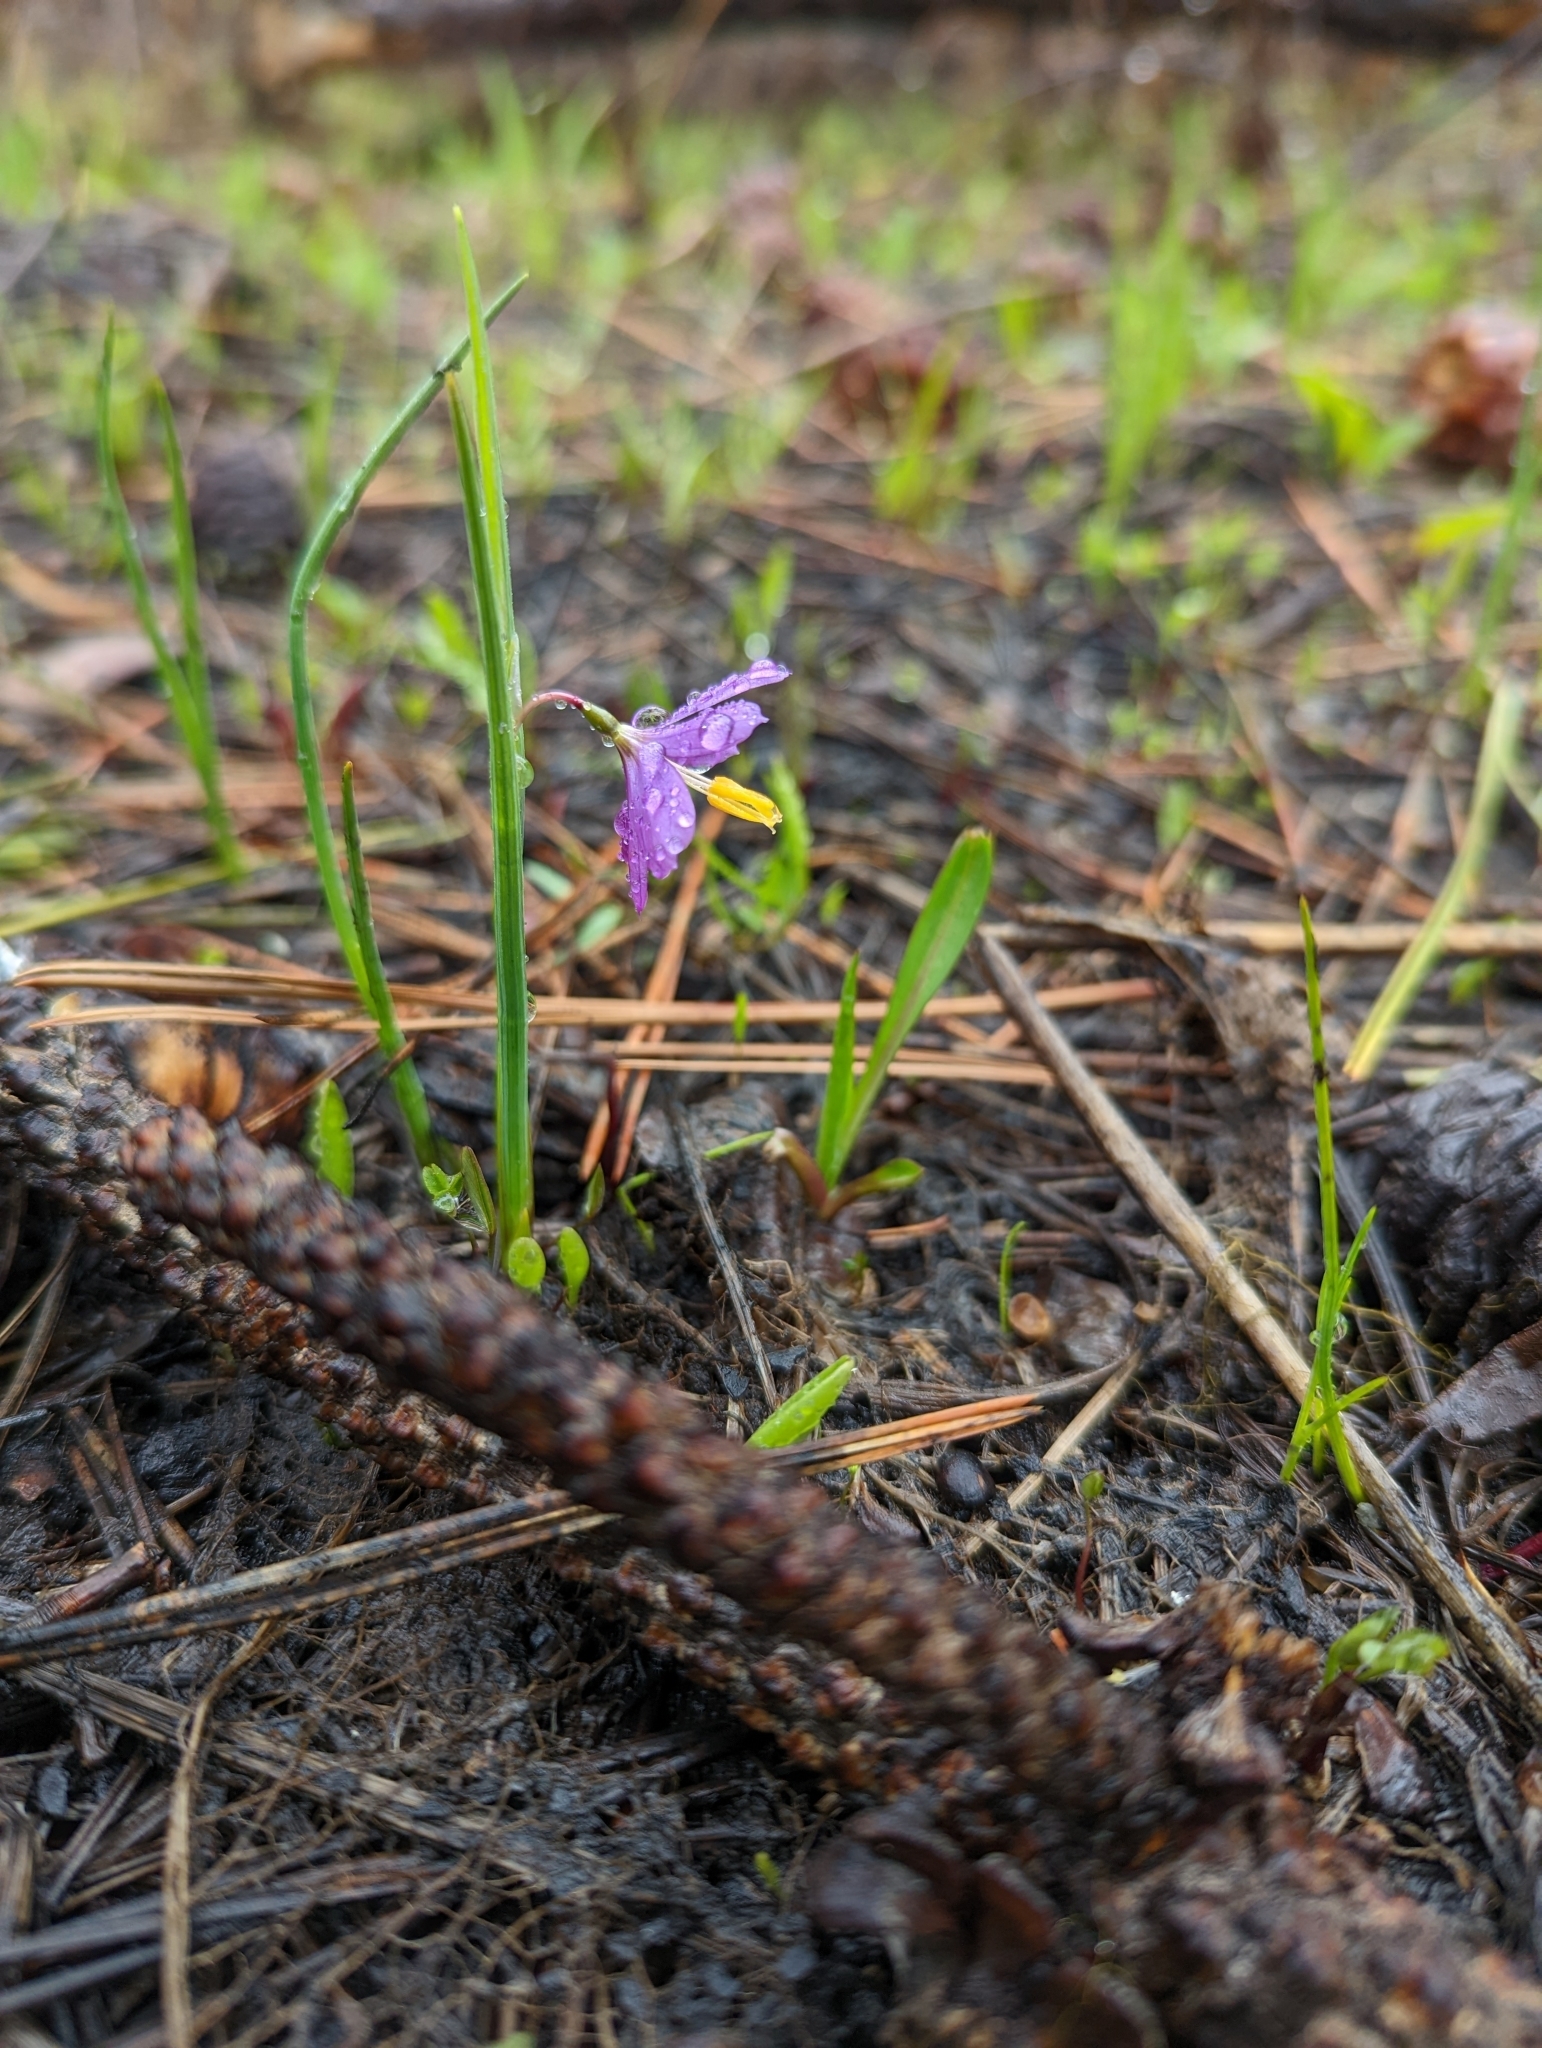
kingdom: Plantae
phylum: Tracheophyta
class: Liliopsida
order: Asparagales
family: Iridaceae
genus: Olsynium
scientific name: Olsynium douglasii
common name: Douglas' grasswidow
